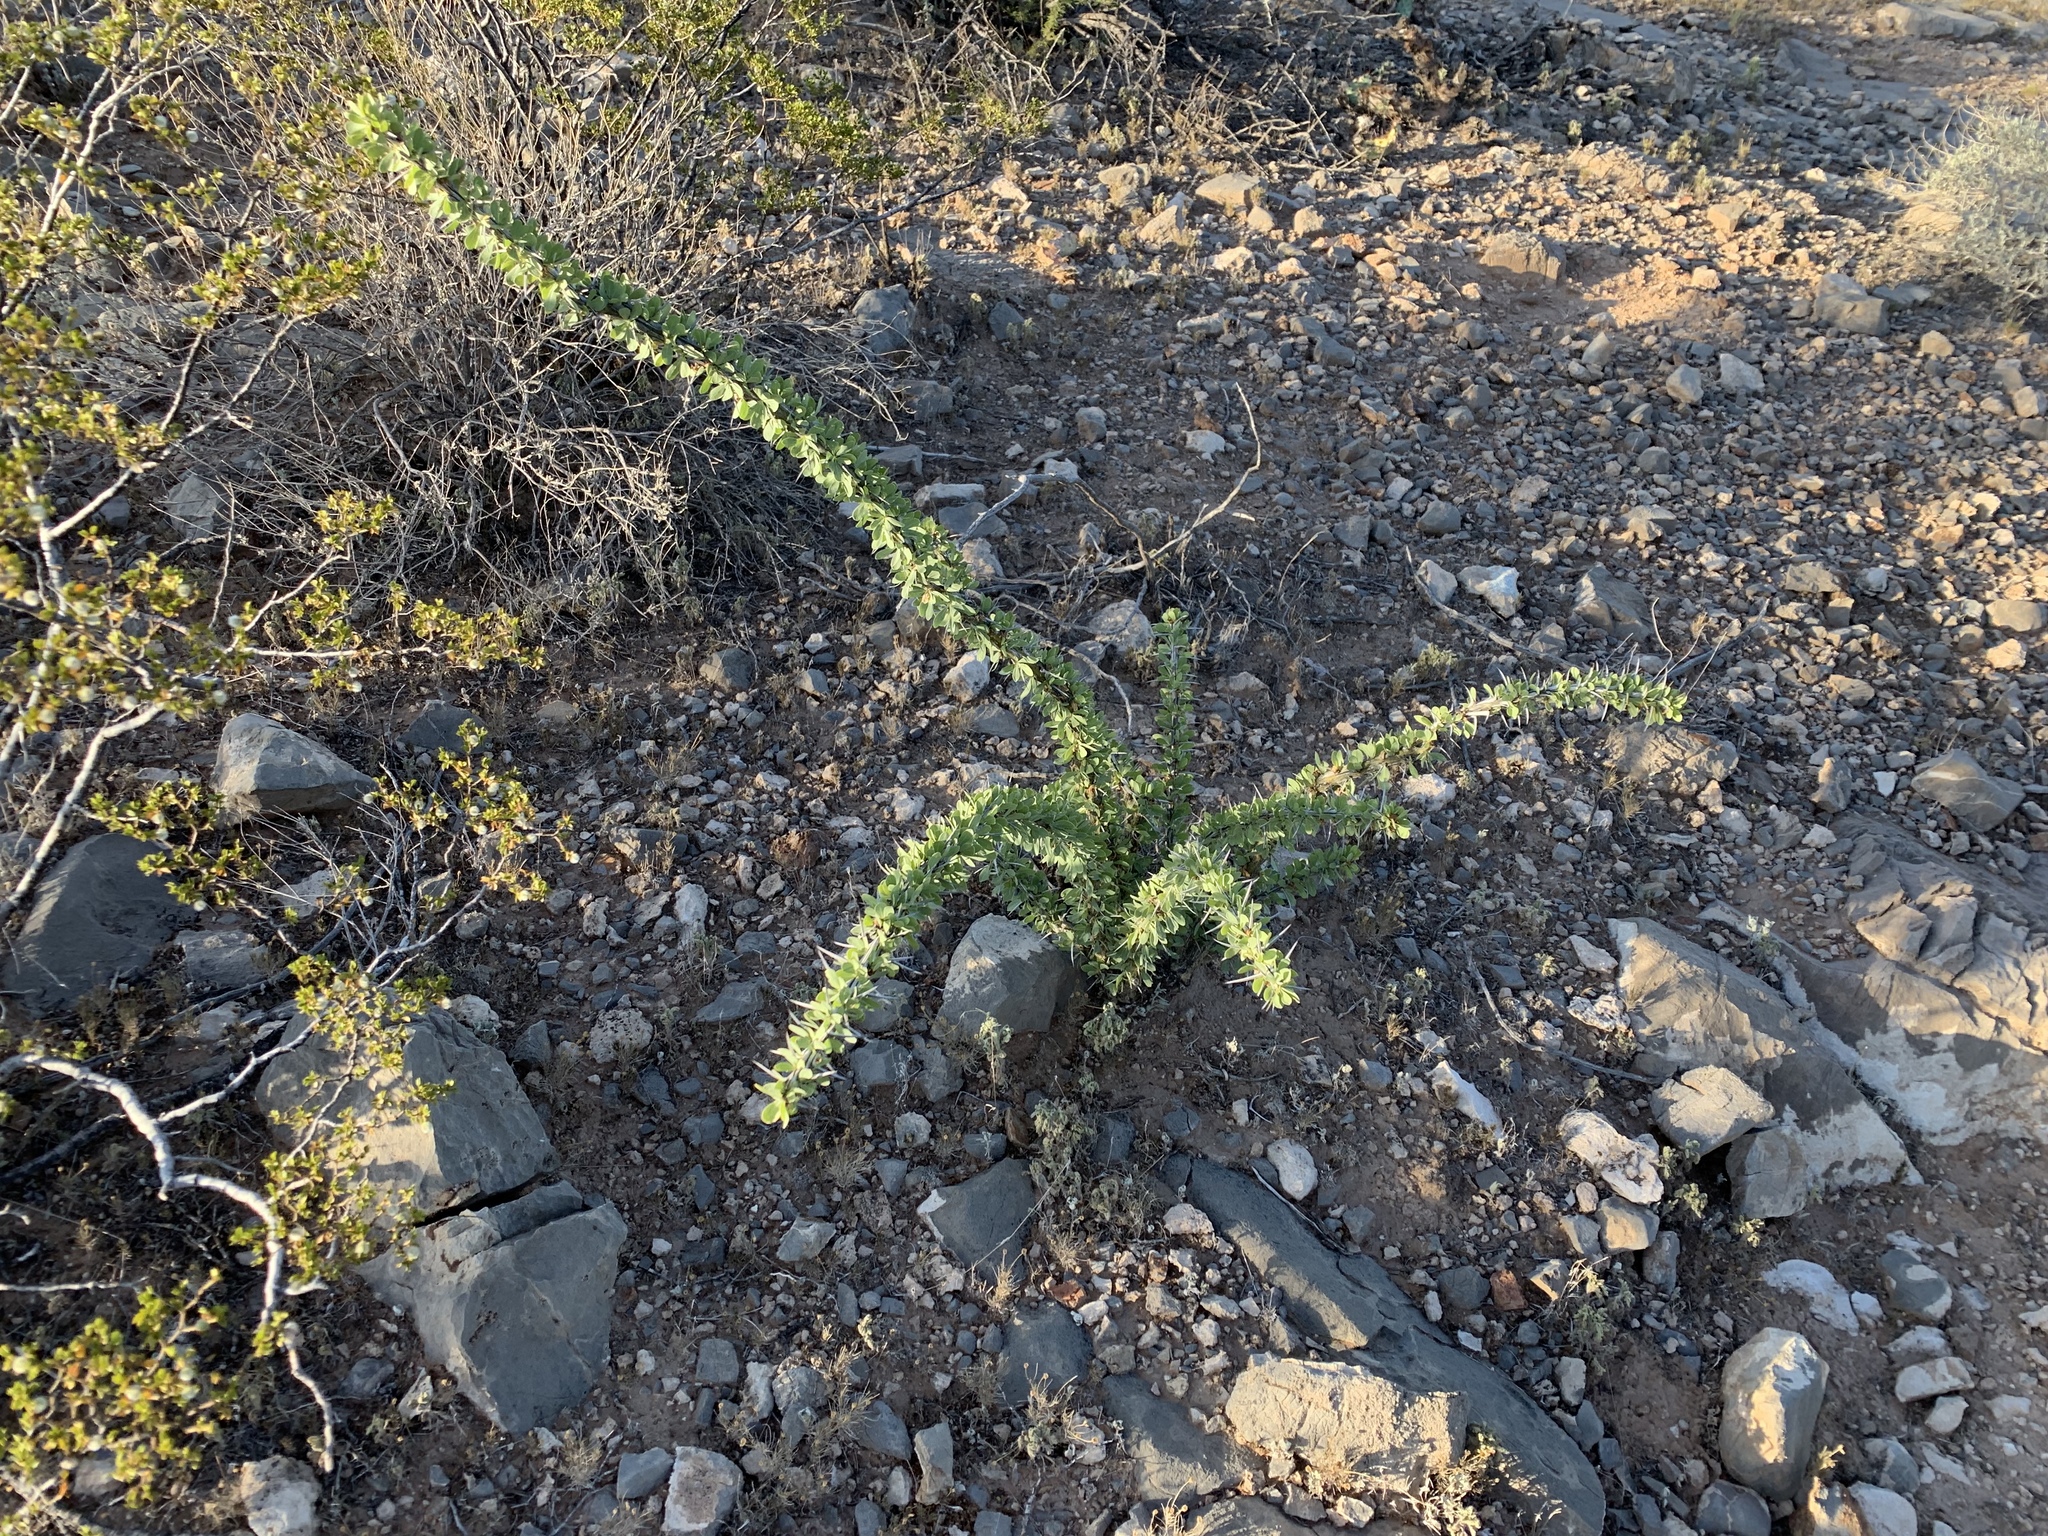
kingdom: Plantae
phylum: Tracheophyta
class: Magnoliopsida
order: Ericales
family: Fouquieriaceae
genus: Fouquieria
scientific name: Fouquieria splendens
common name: Vine-cactus
